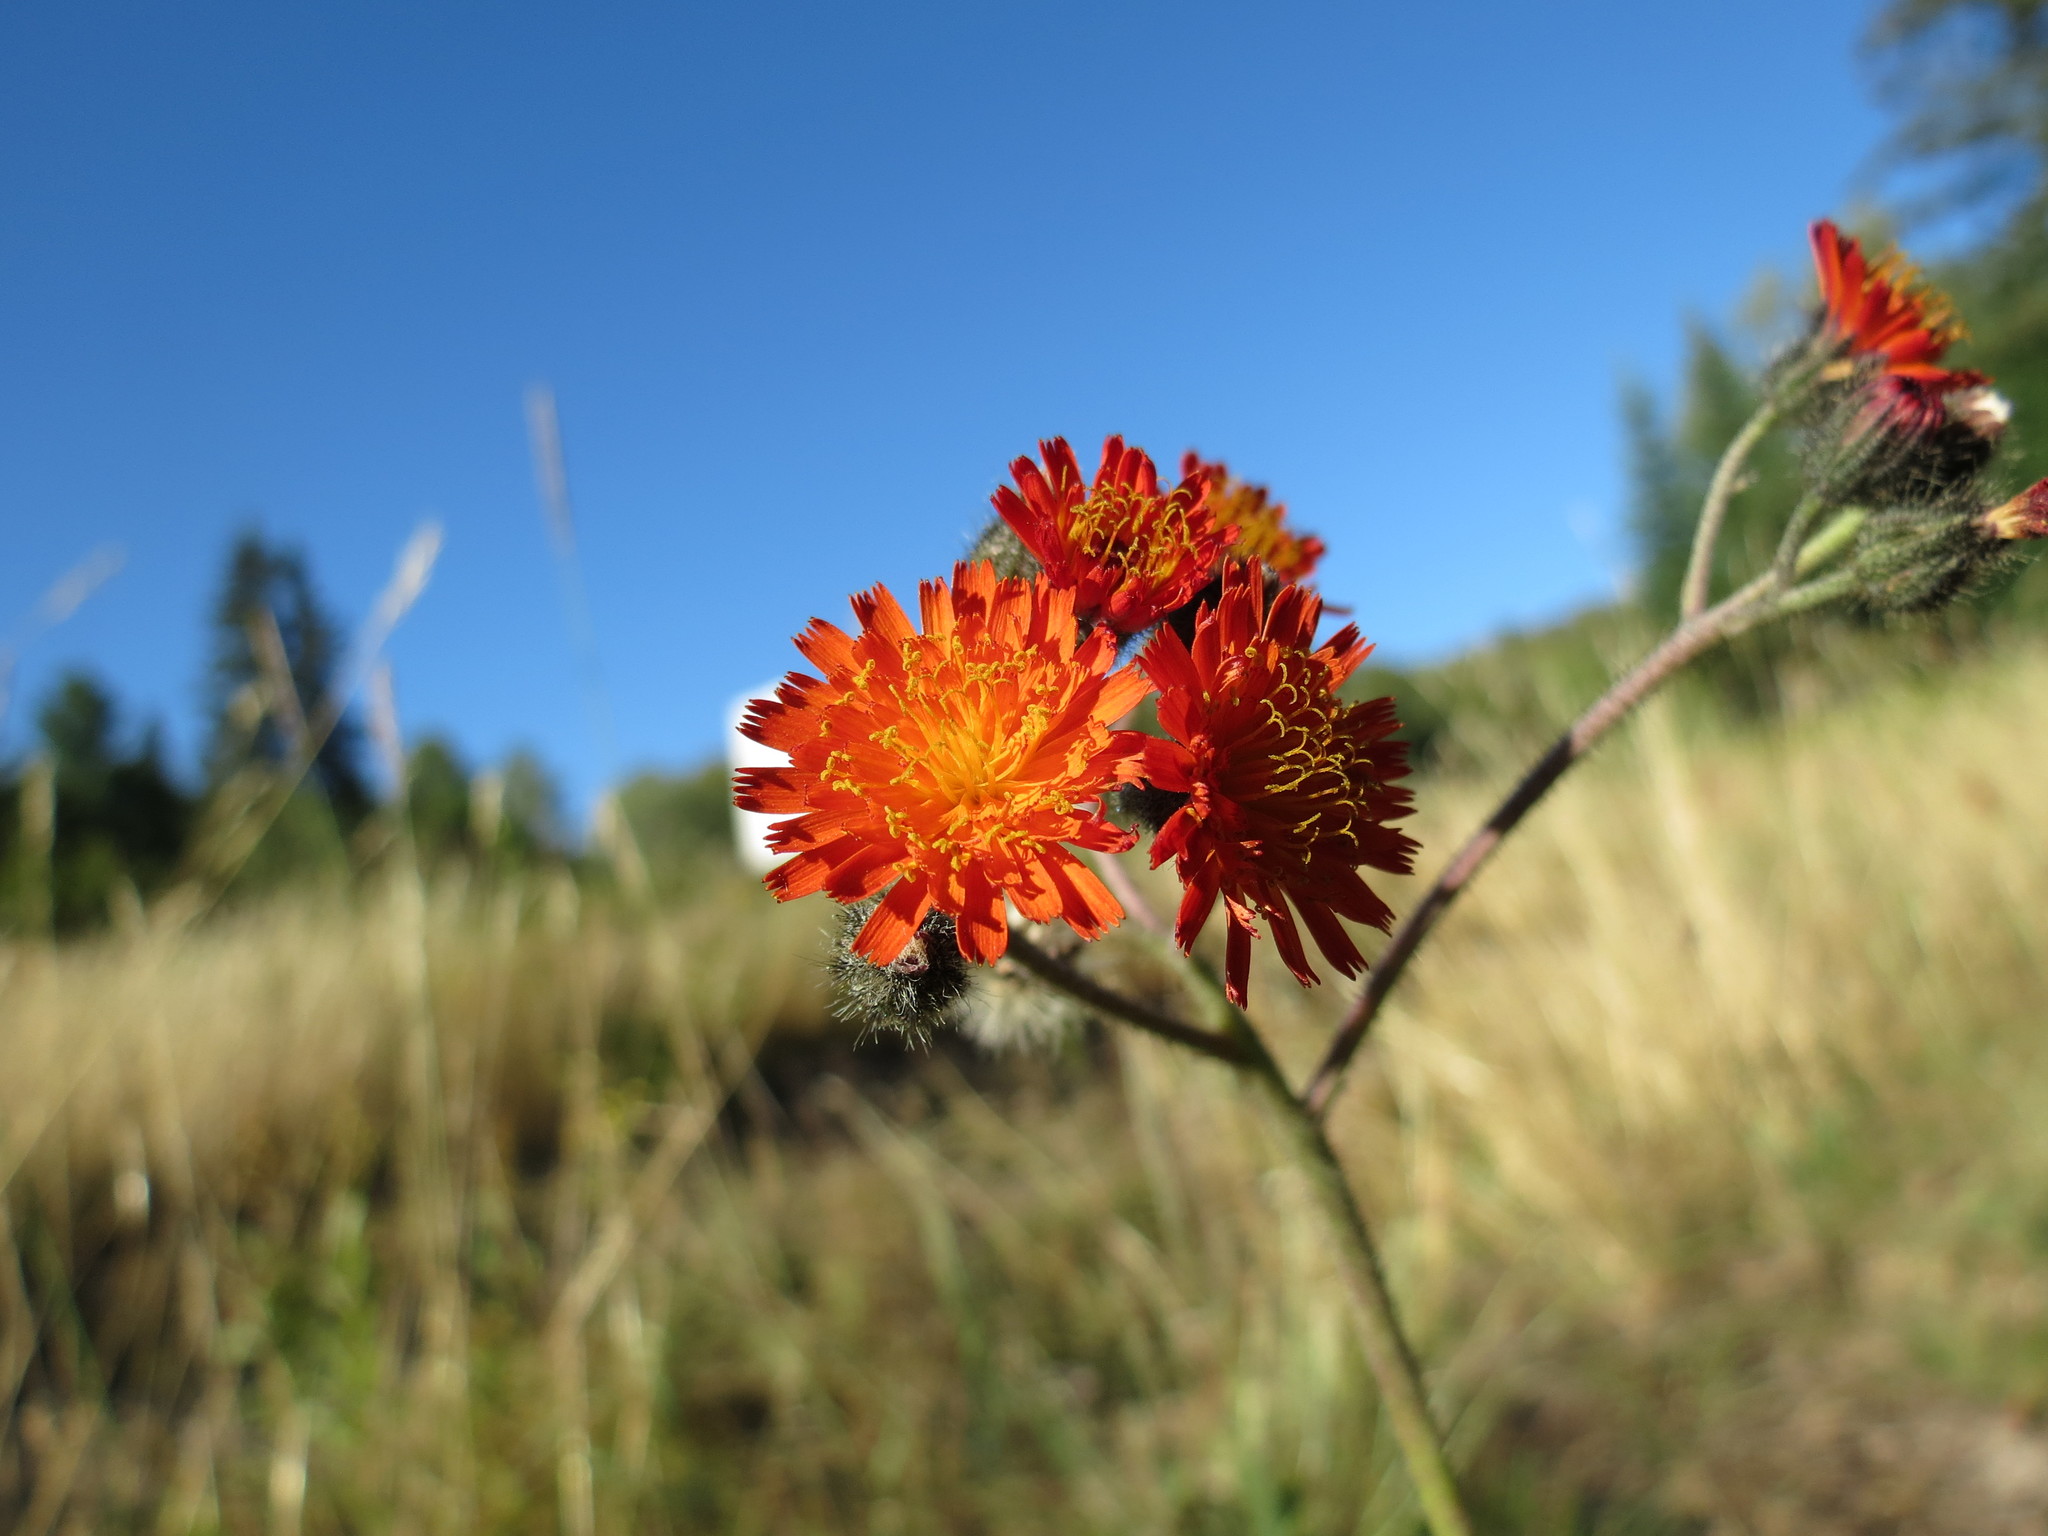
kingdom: Plantae
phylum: Tracheophyta
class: Magnoliopsida
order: Asterales
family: Asteraceae
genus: Pilosella
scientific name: Pilosella aurantiaca
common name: Fox-and-cubs
